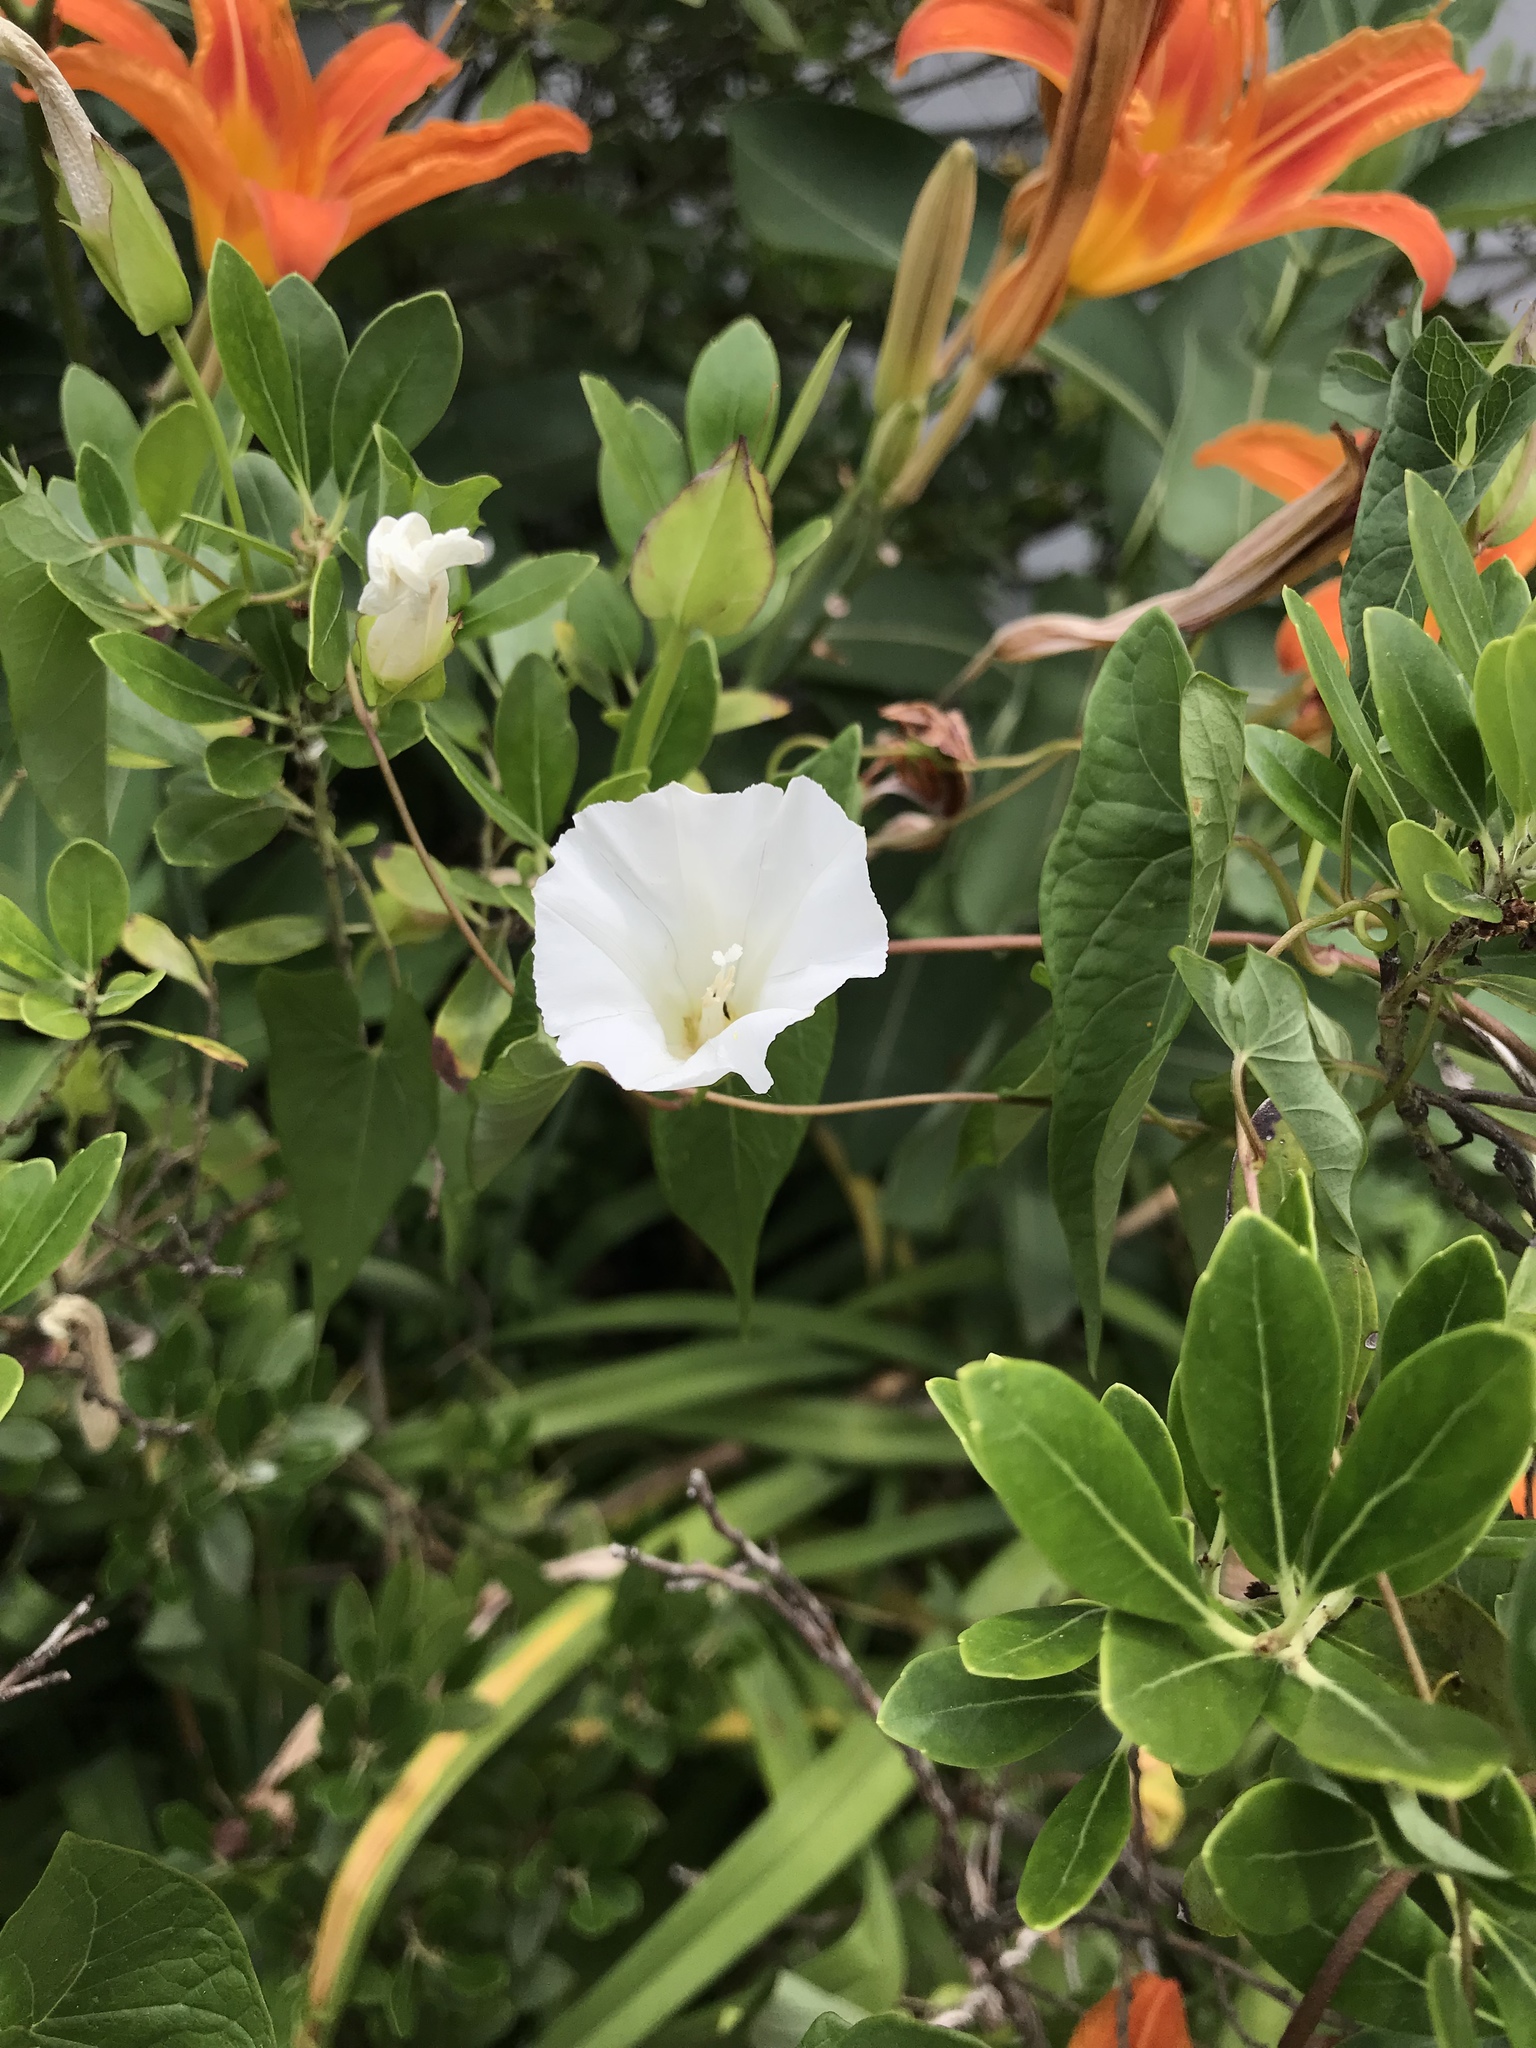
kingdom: Plantae
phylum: Tracheophyta
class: Magnoliopsida
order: Solanales
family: Convolvulaceae
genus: Calystegia
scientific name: Calystegia sepium
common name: Hedge bindweed
